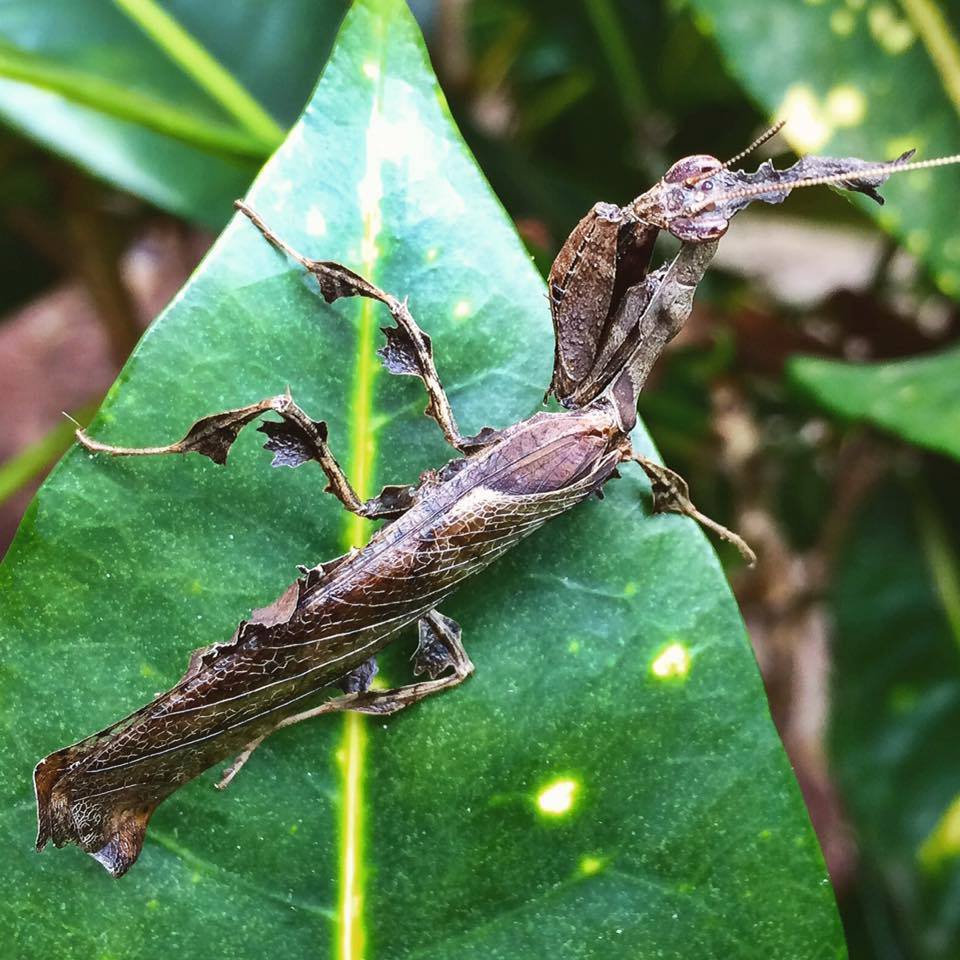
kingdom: Animalia
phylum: Arthropoda
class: Insecta
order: Mantodea
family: Hymenopodidae
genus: Phyllocrania
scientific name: Phyllocrania paradoxa
